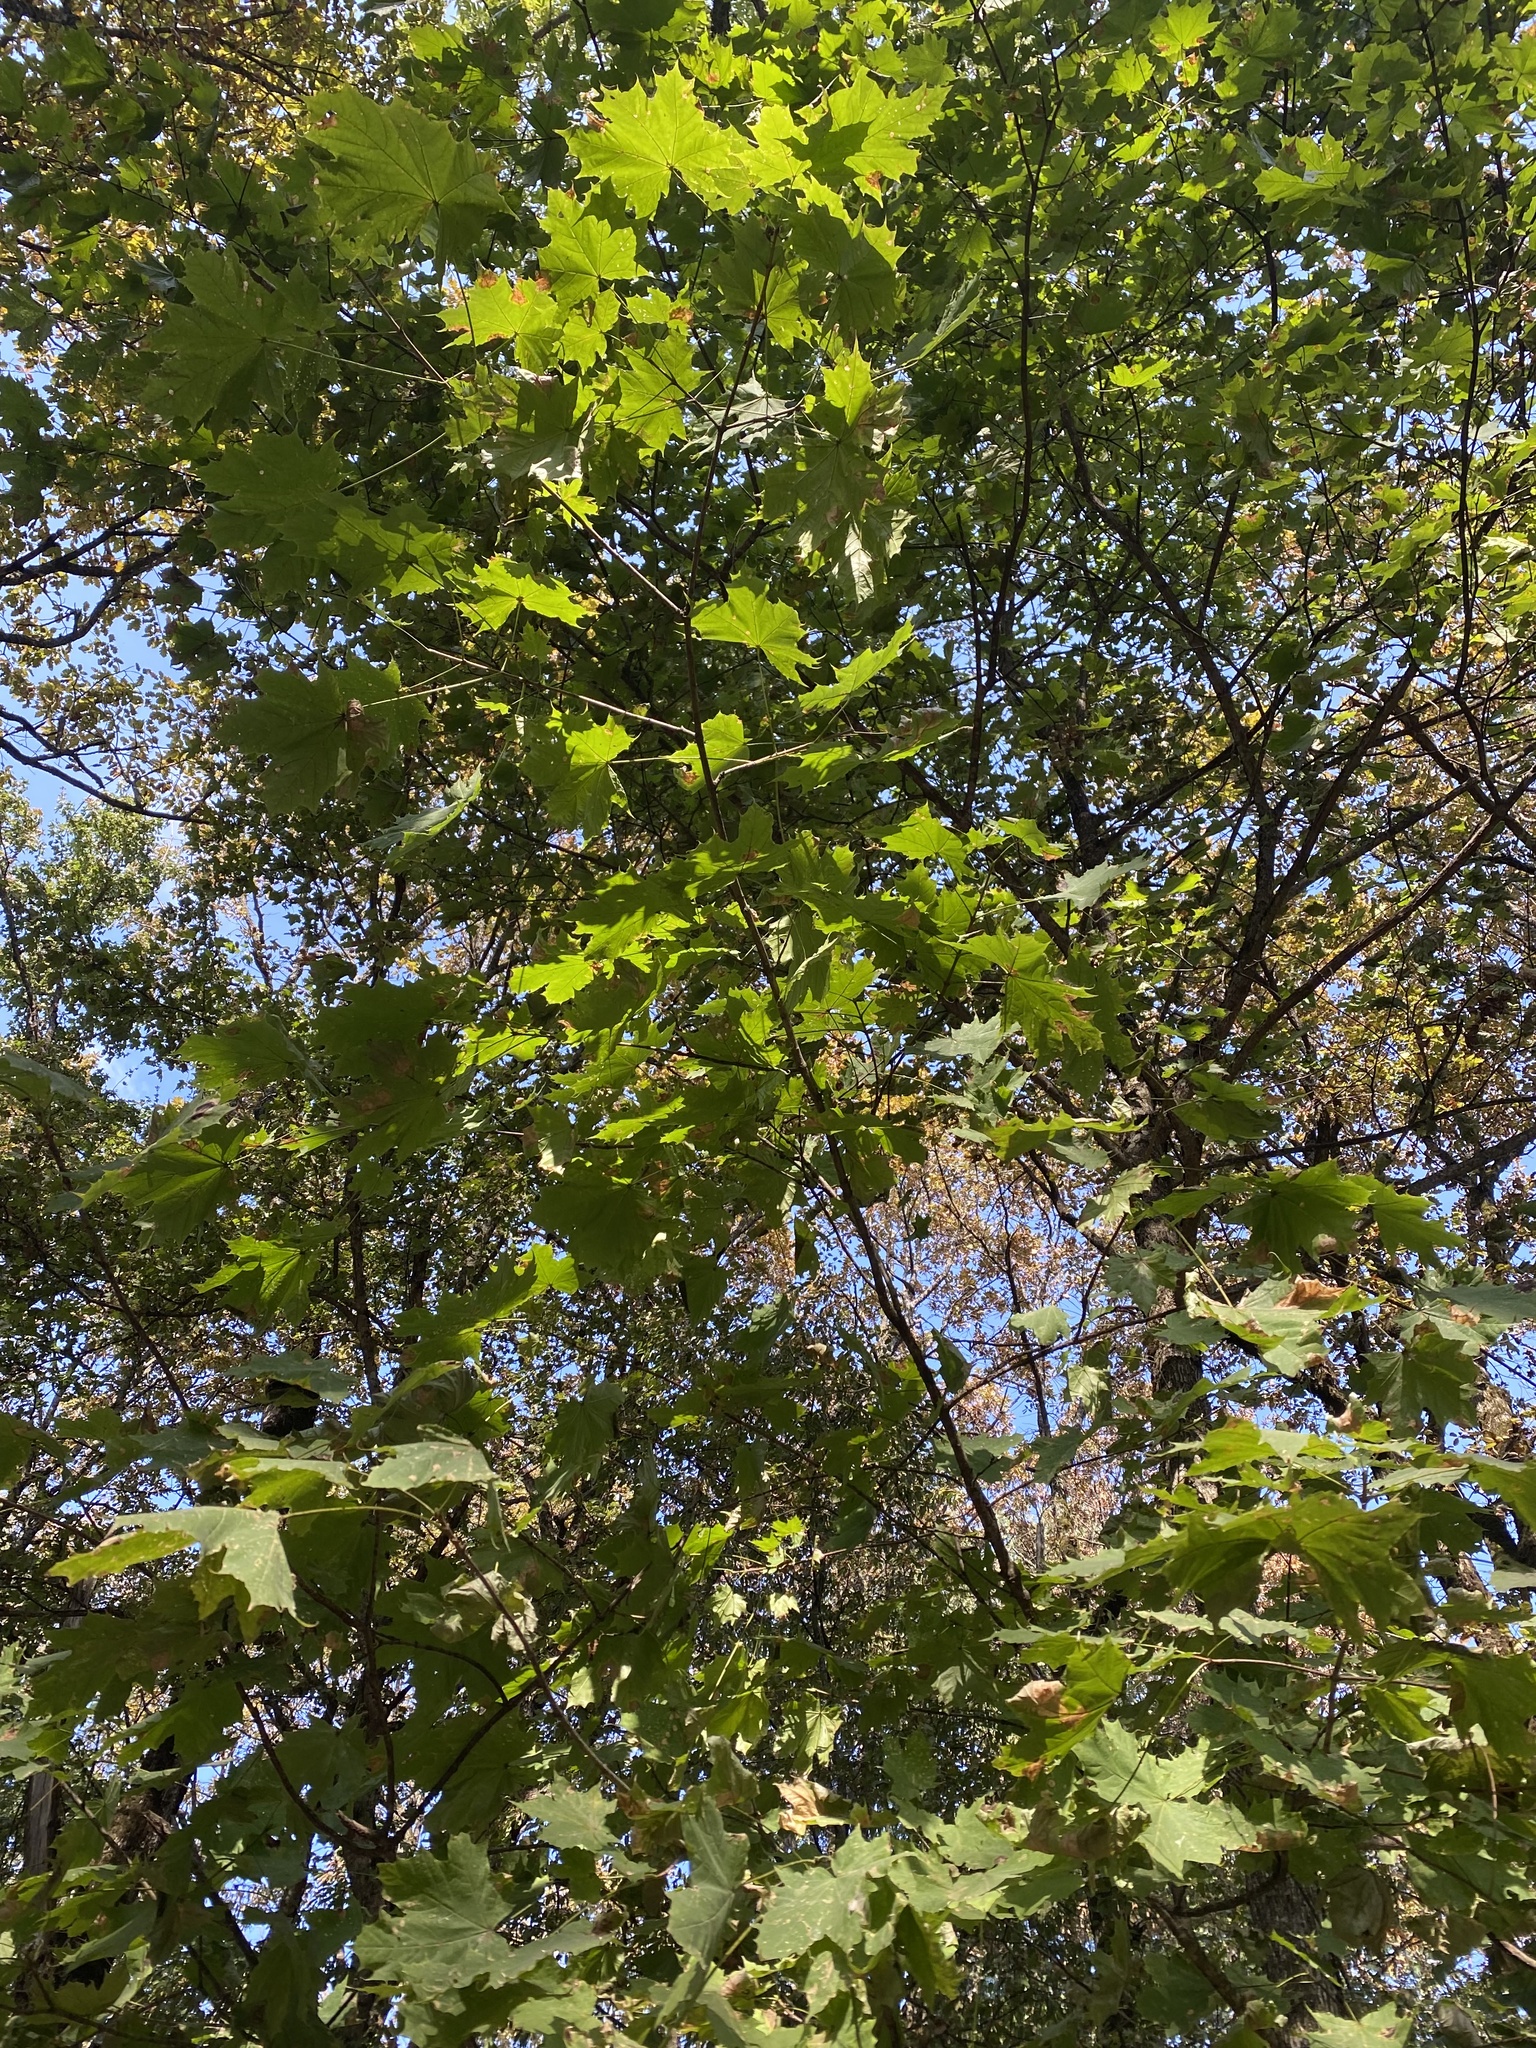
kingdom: Plantae
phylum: Tracheophyta
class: Magnoliopsida
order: Sapindales
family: Sapindaceae
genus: Acer
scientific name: Acer platanoides
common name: Norway maple
